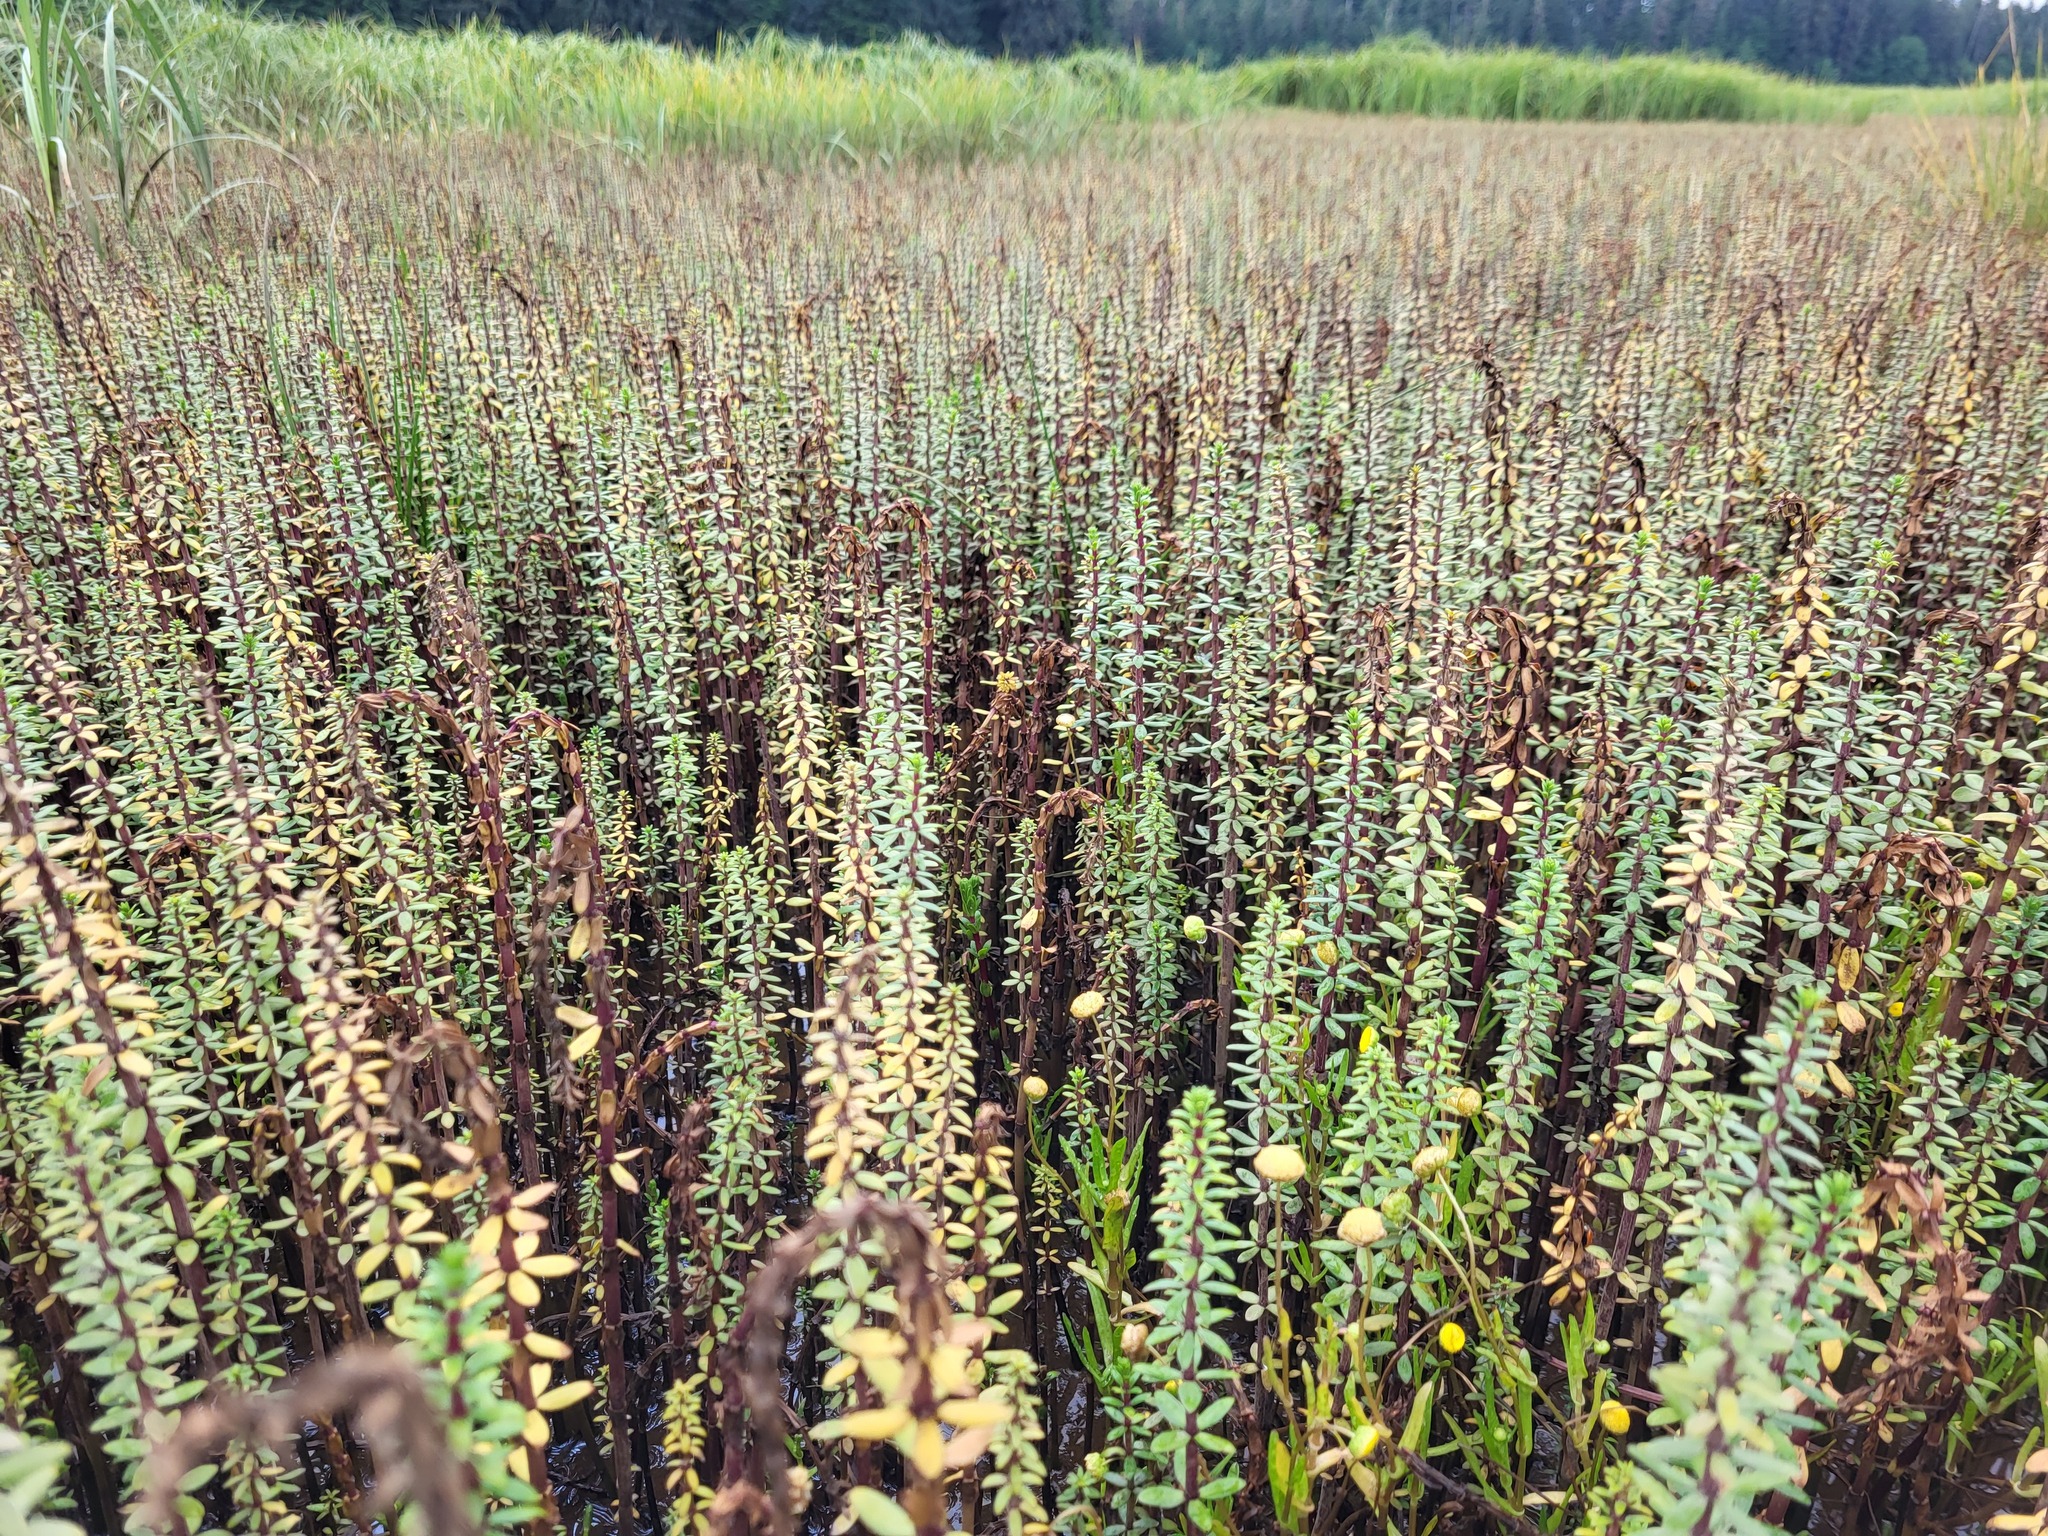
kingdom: Plantae
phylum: Tracheophyta
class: Magnoliopsida
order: Lamiales
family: Plantaginaceae
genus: Hippuris
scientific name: Hippuris tetraphylla
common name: Four-leaved mare's-tail
